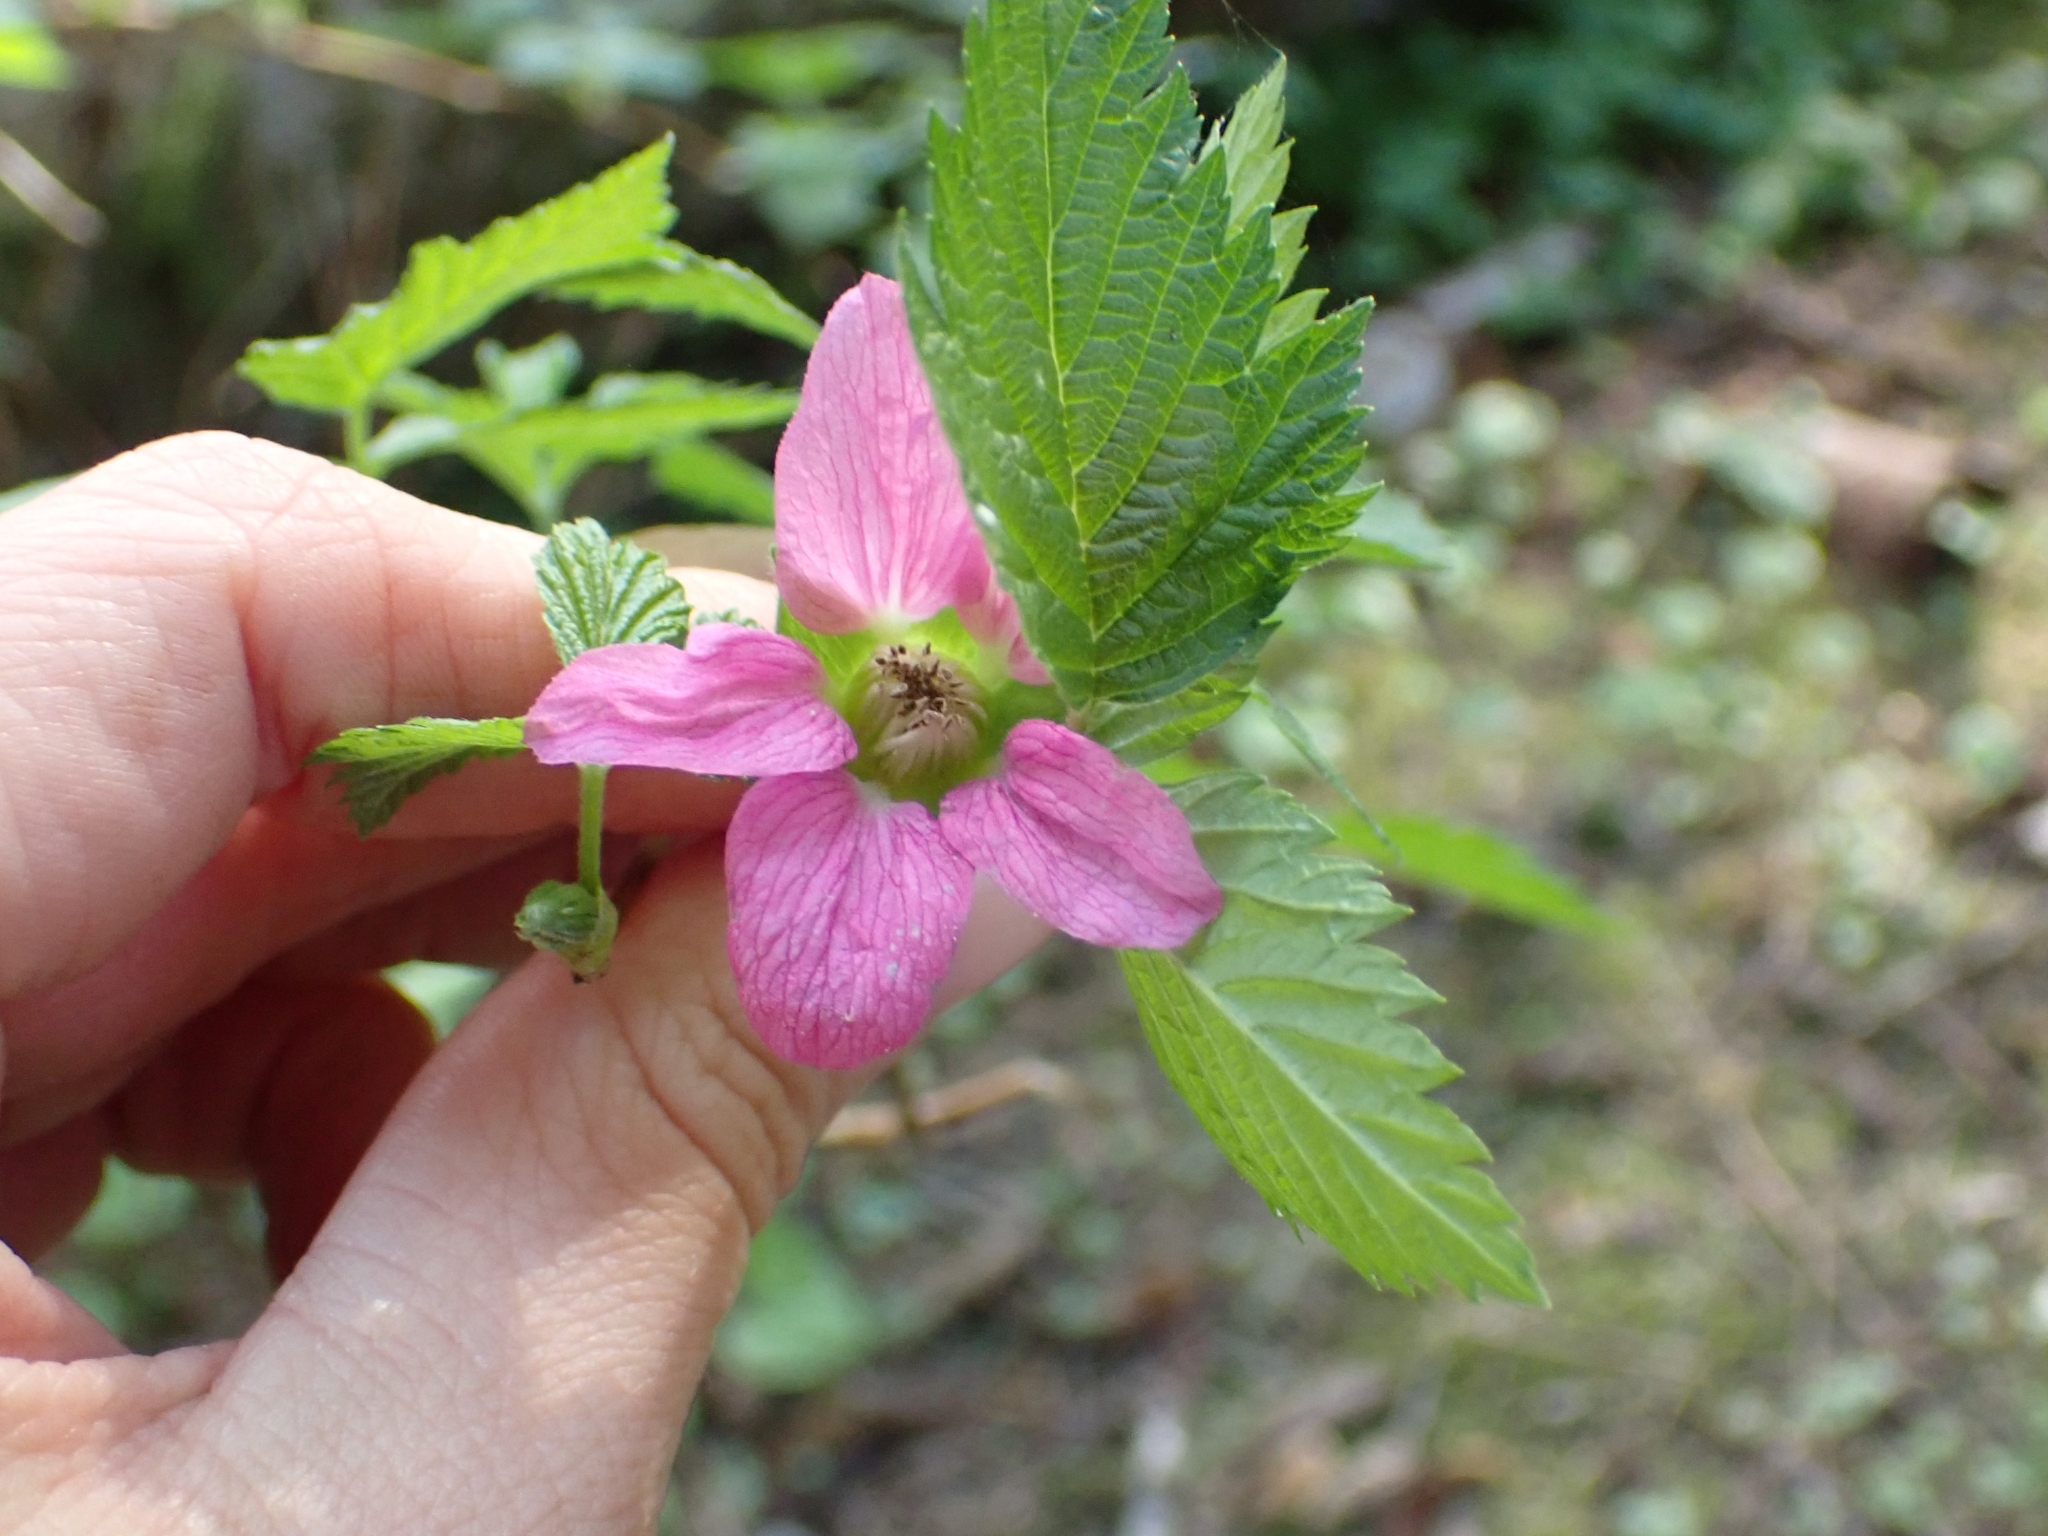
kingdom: Plantae
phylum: Tracheophyta
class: Magnoliopsida
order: Rosales
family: Rosaceae
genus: Rubus
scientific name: Rubus spectabilis
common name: Salmonberry
